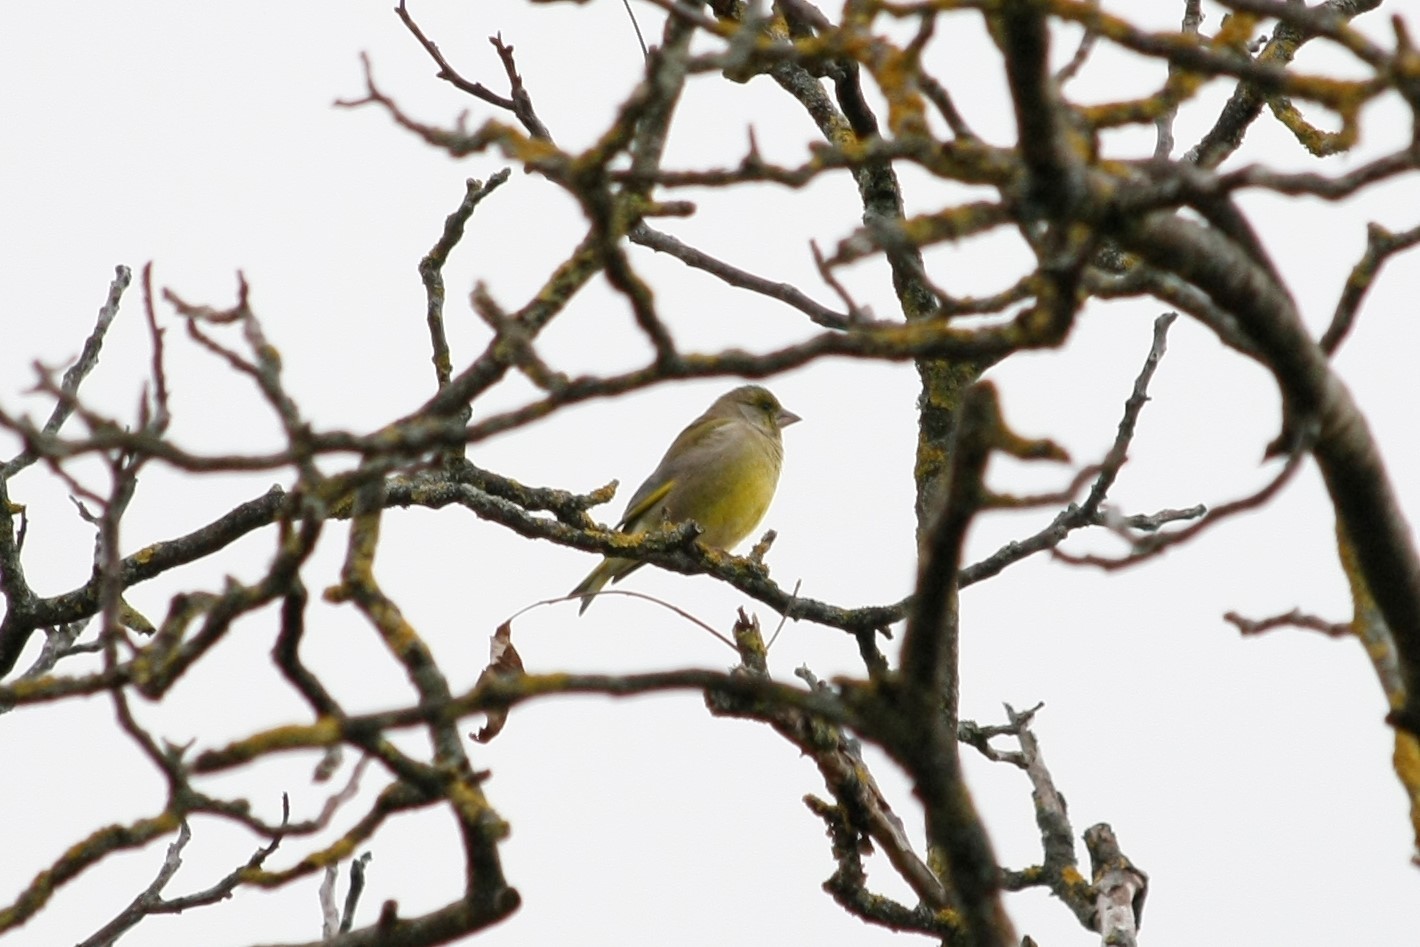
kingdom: Plantae
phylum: Tracheophyta
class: Liliopsida
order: Poales
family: Poaceae
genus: Chloris
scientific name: Chloris chloris
